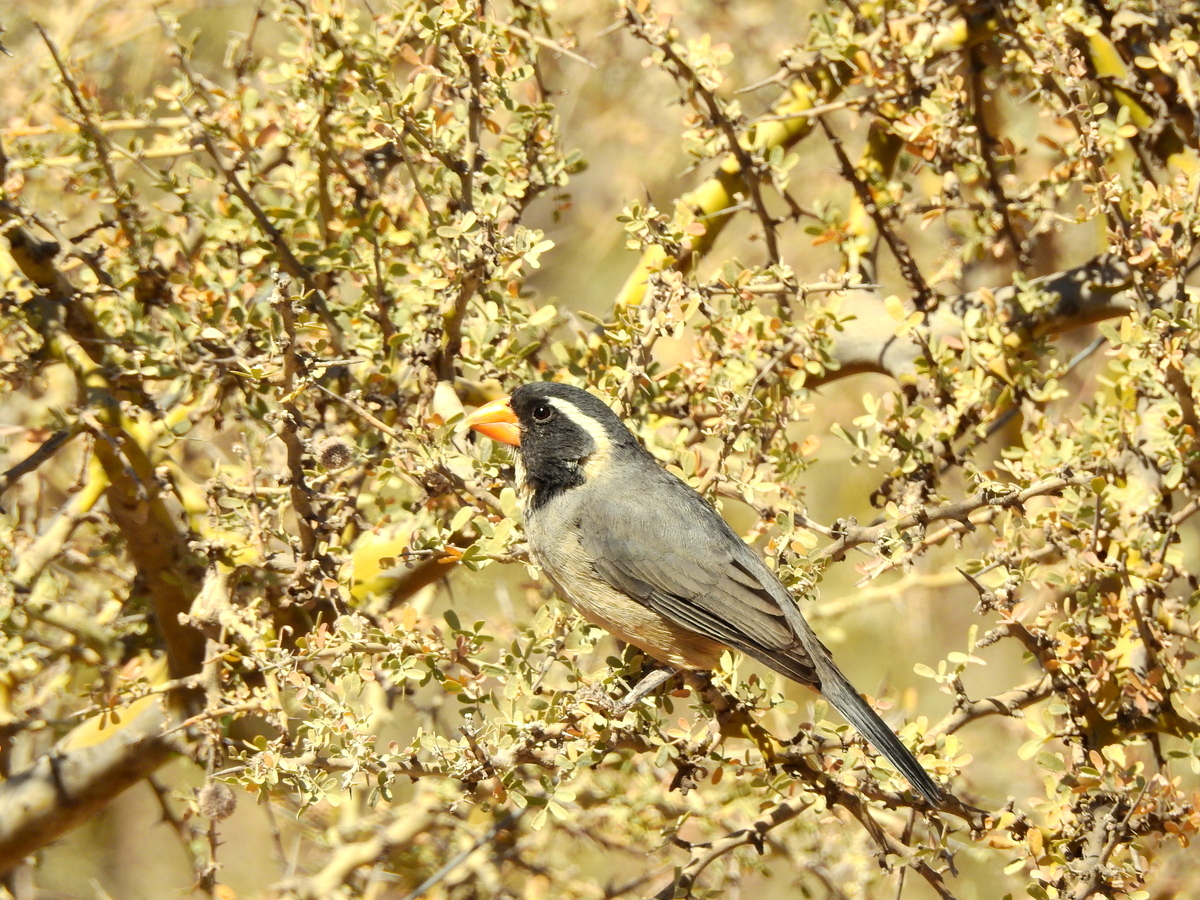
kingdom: Animalia
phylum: Chordata
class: Aves
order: Passeriformes
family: Thraupidae
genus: Saltator
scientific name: Saltator aurantiirostris
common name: Golden-billed saltator
